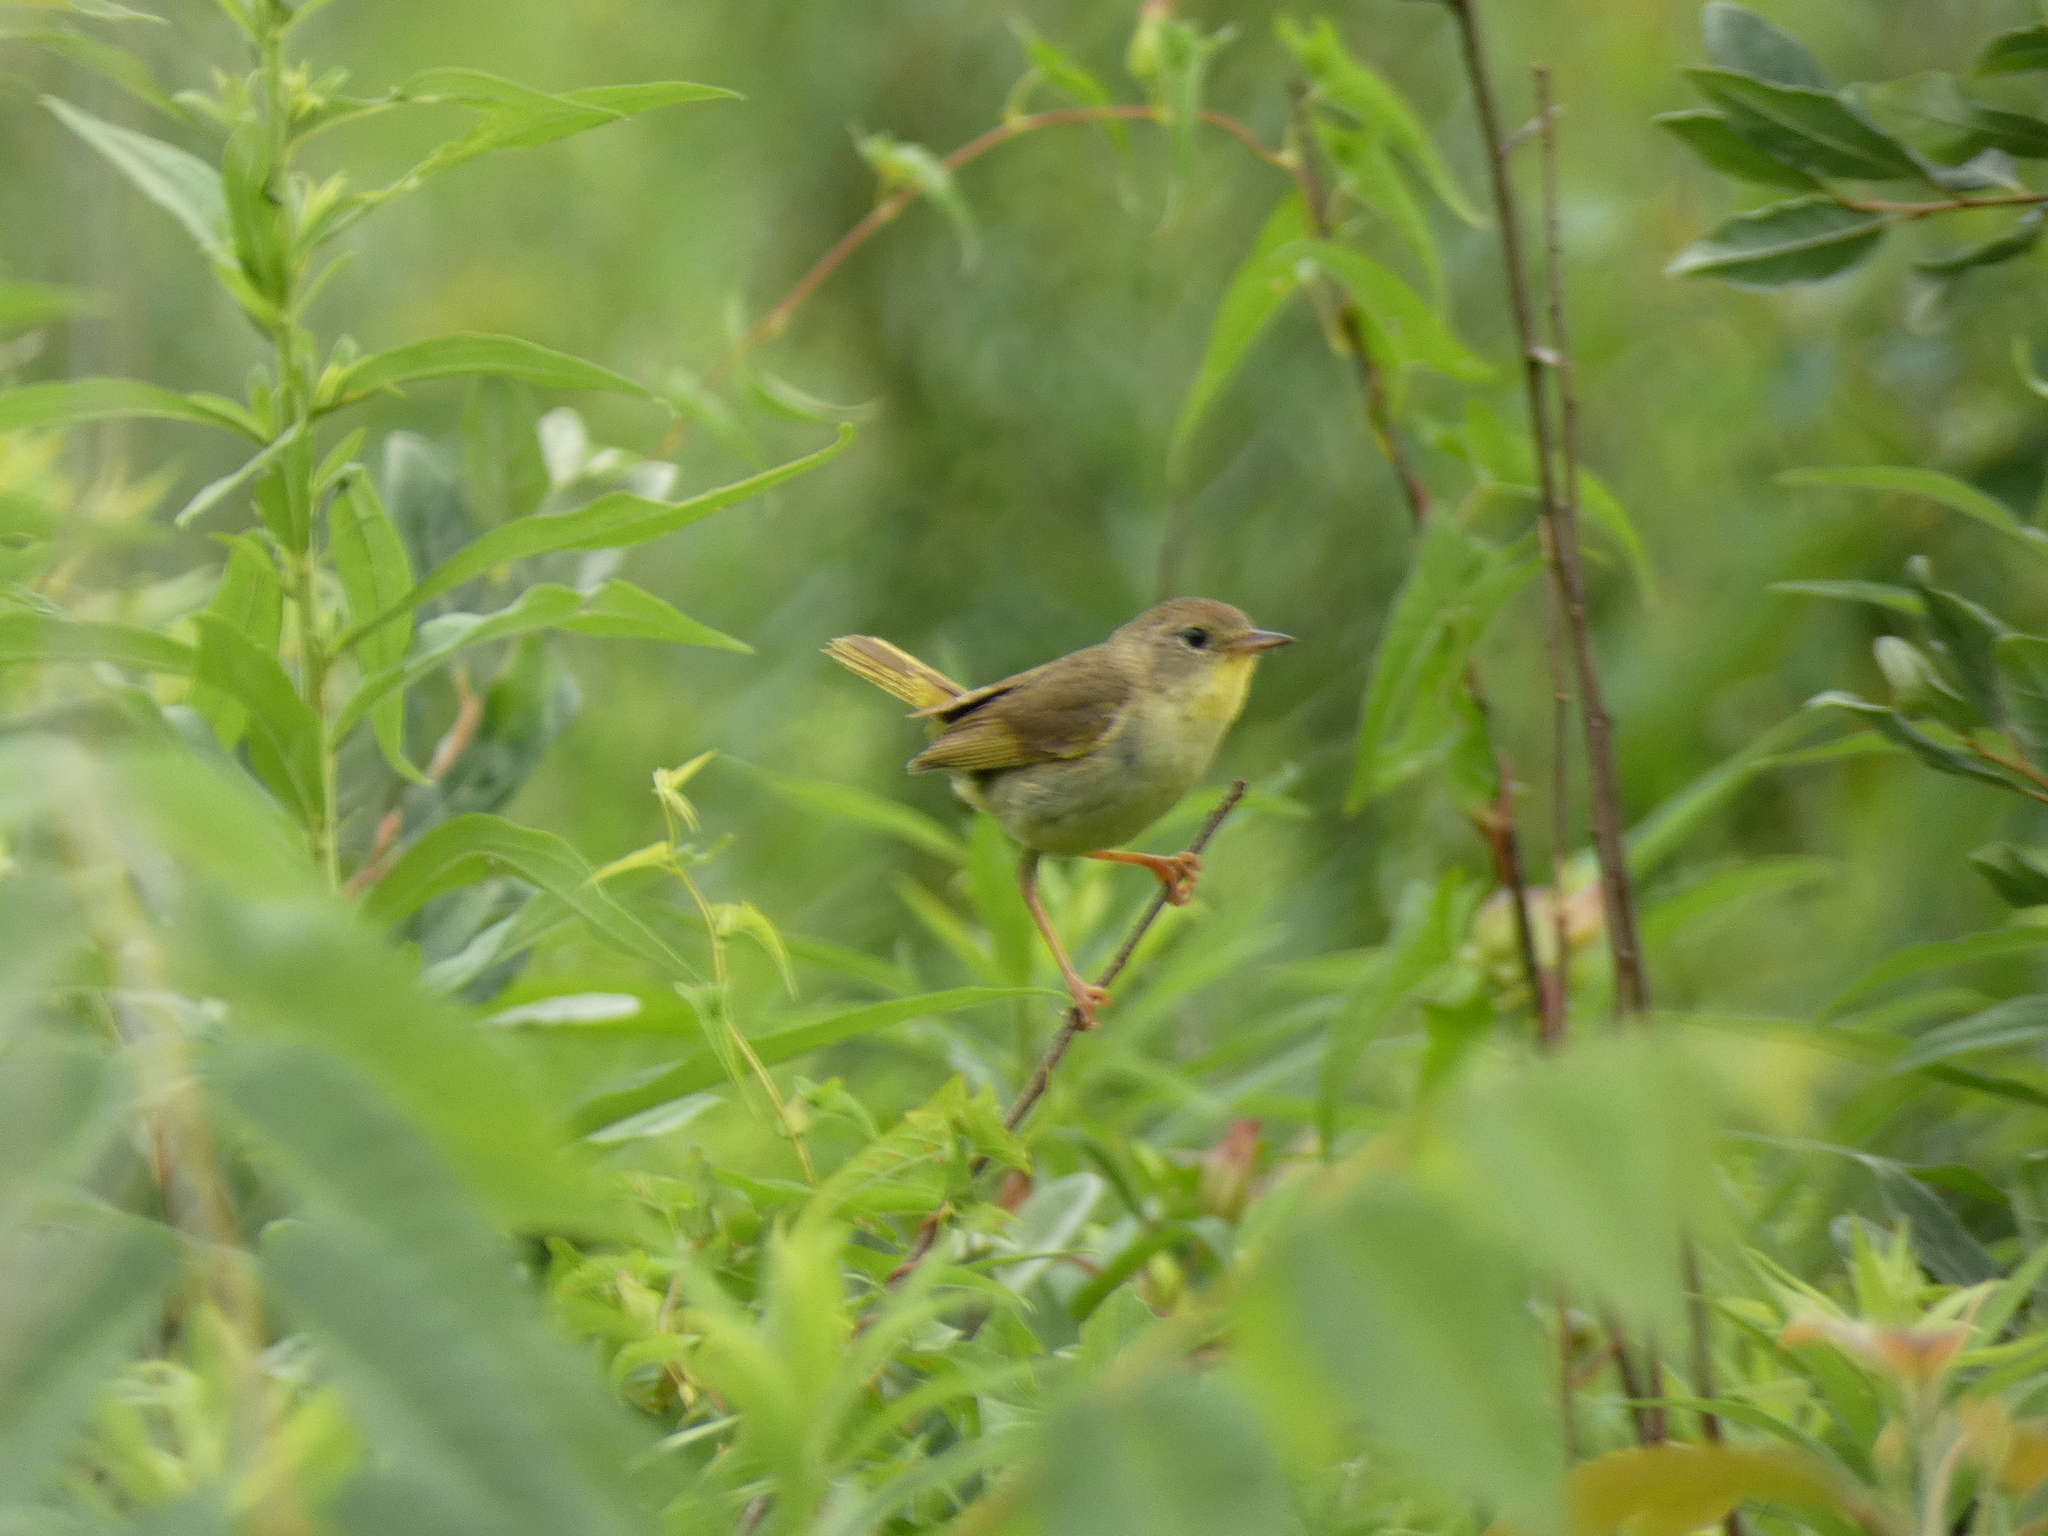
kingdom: Animalia
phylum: Chordata
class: Aves
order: Passeriformes
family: Parulidae
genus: Geothlypis
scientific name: Geothlypis trichas
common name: Common yellowthroat
